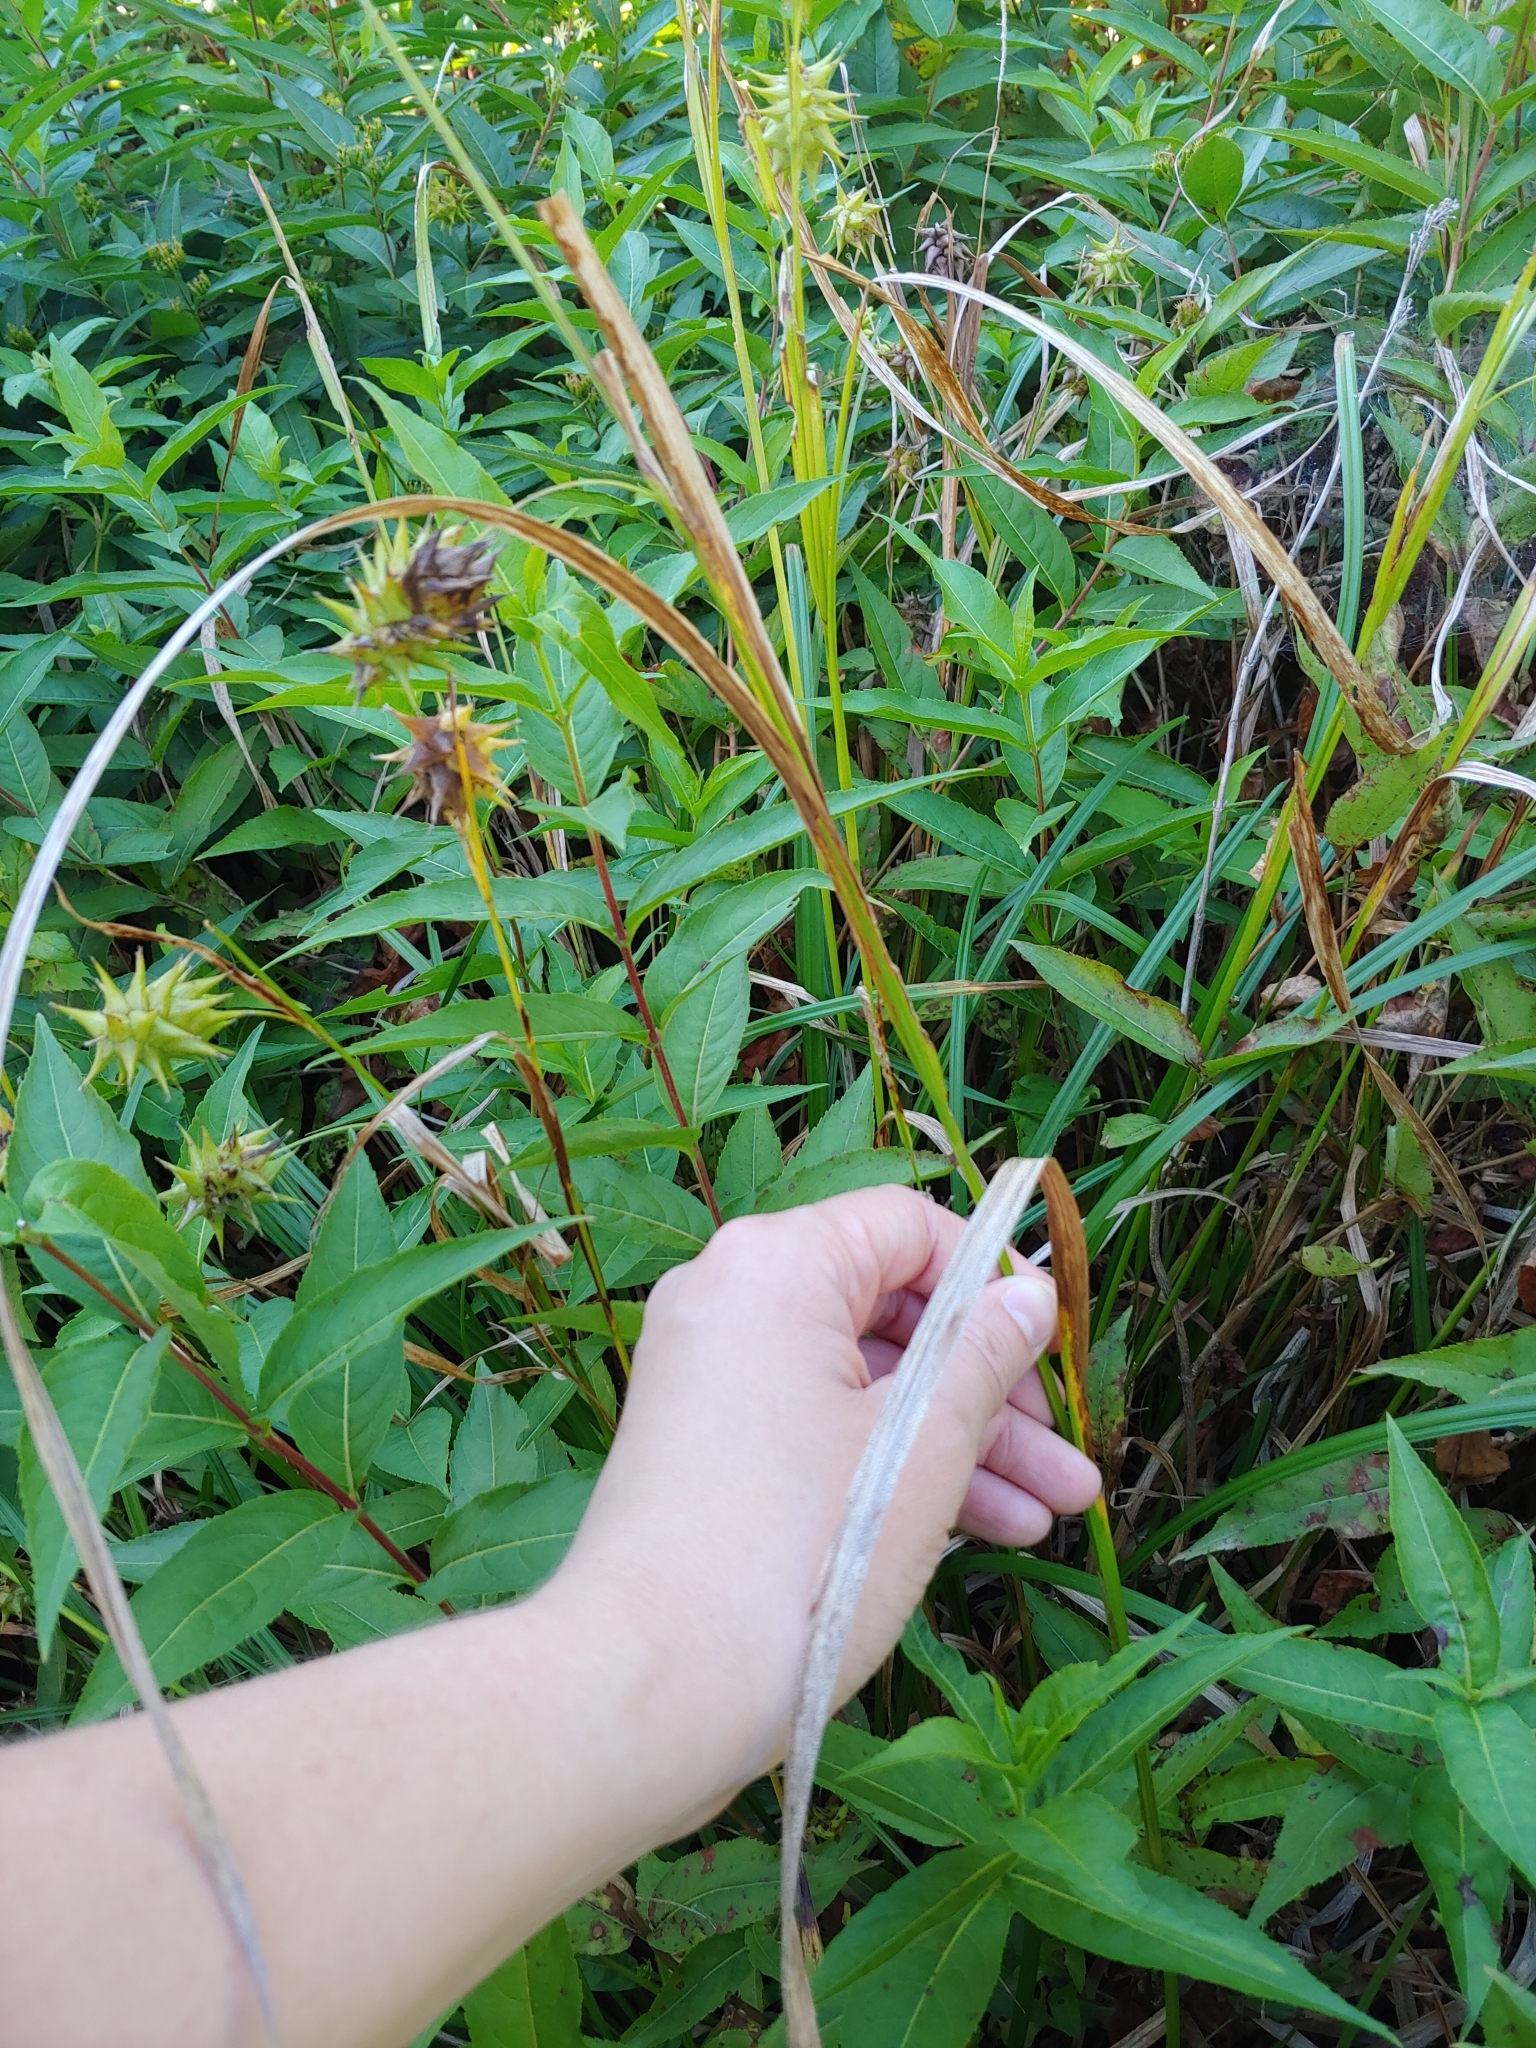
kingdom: Plantae
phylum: Tracheophyta
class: Liliopsida
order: Poales
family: Cyperaceae
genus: Carex
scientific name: Carex grayi
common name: Asa gray's sedge
